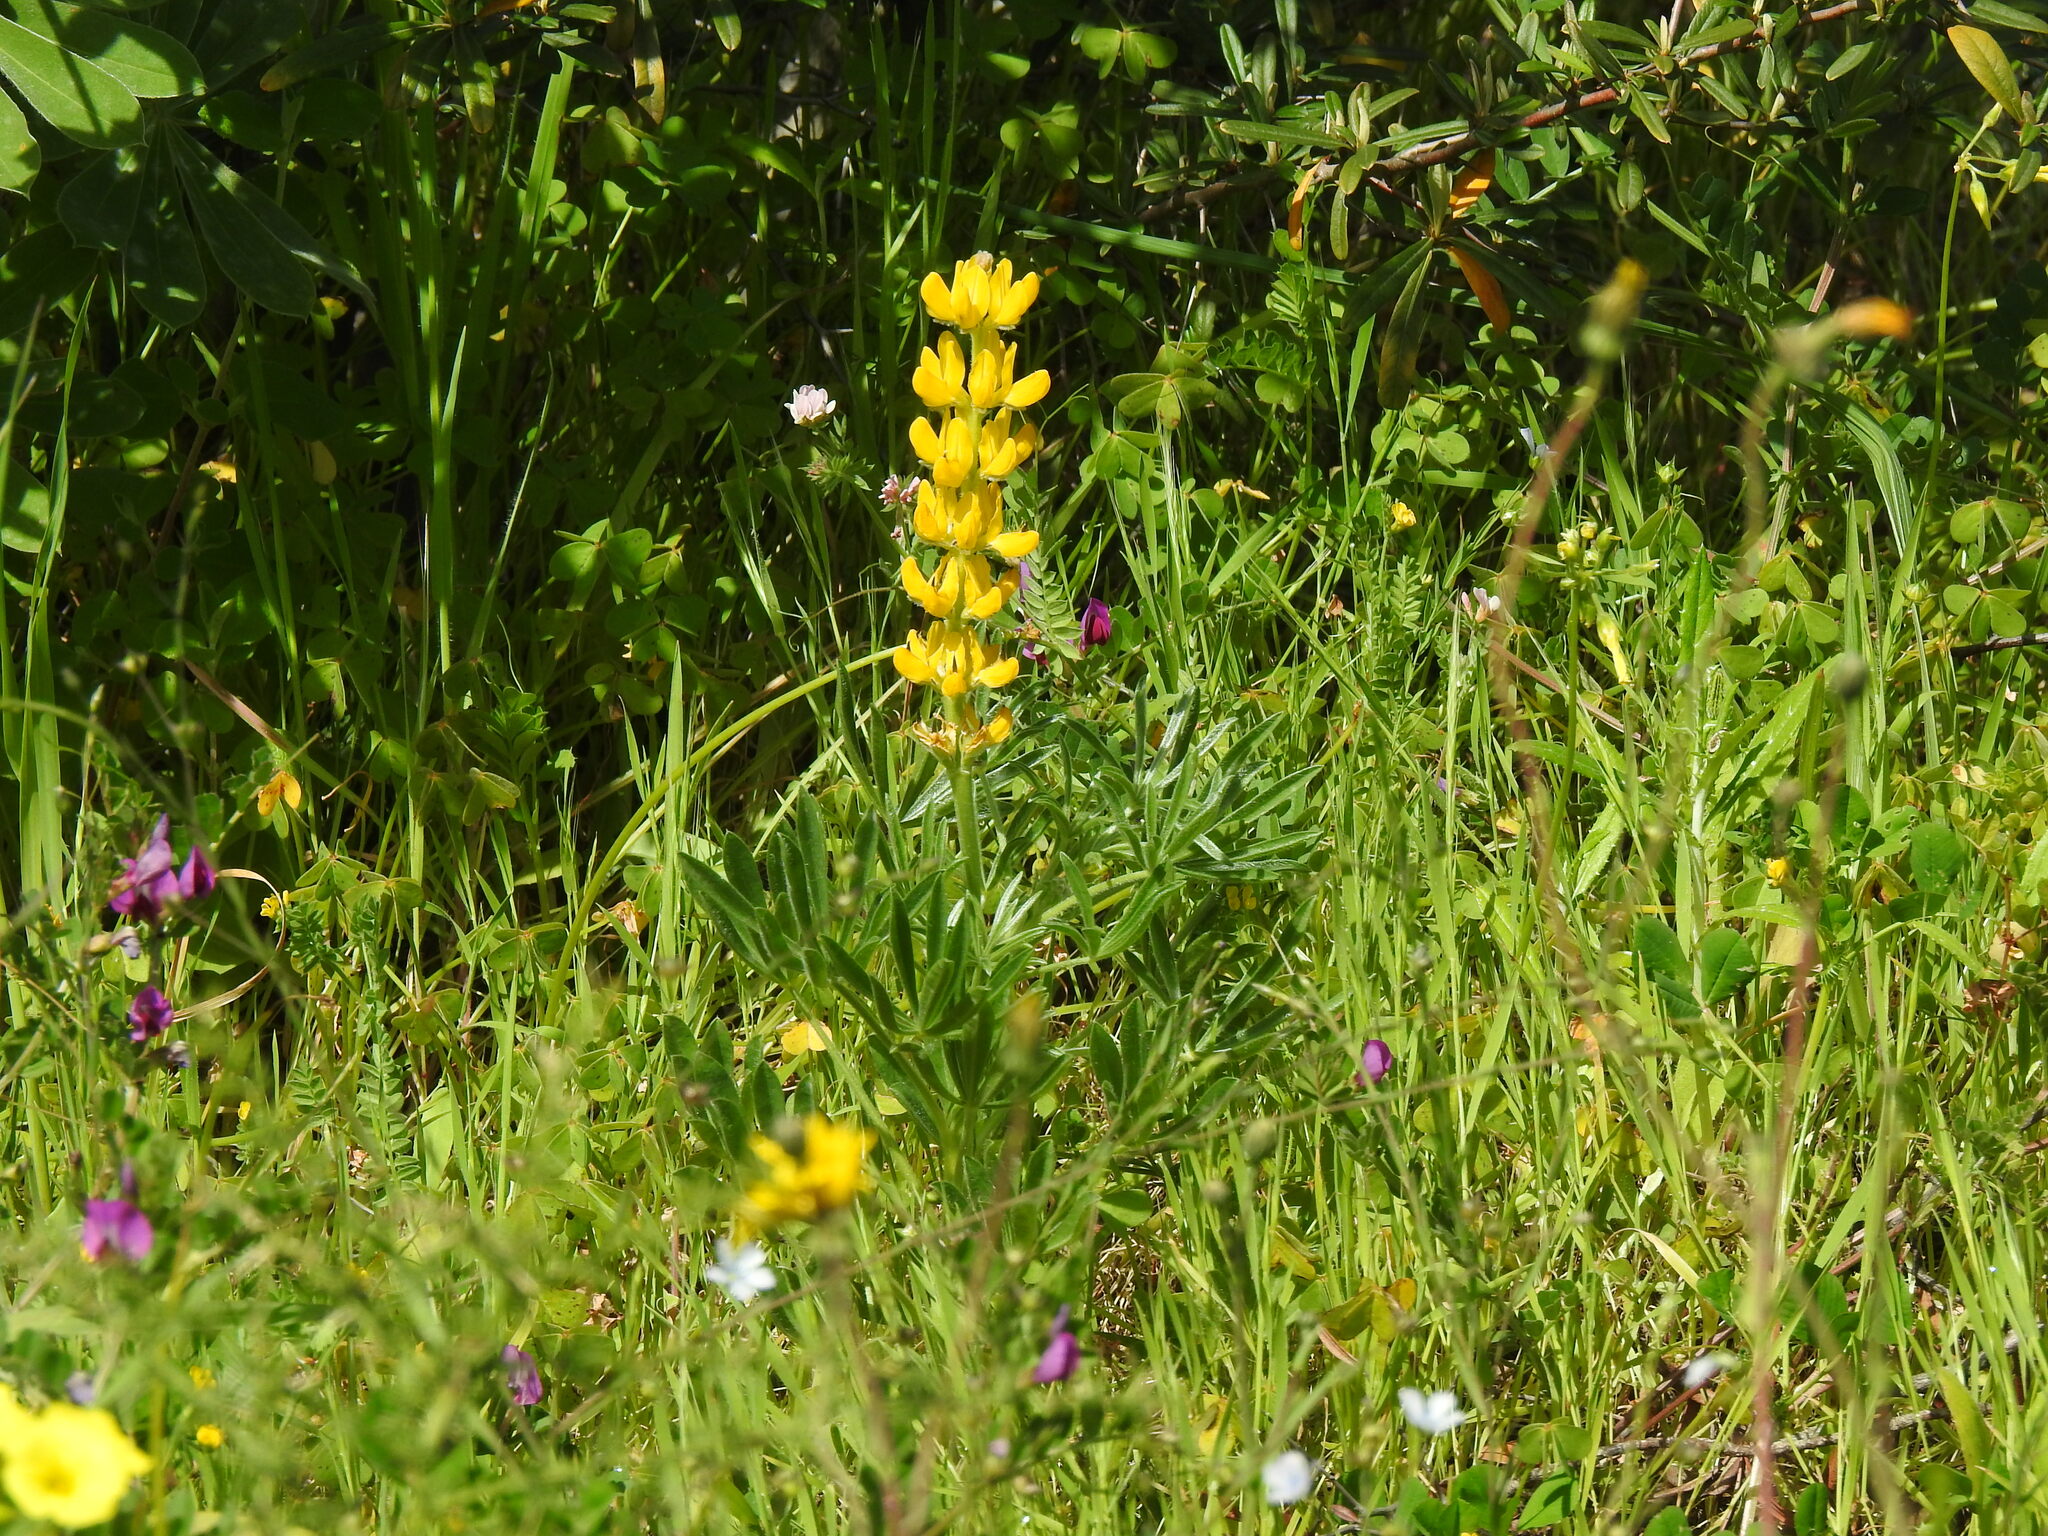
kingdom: Plantae
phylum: Tracheophyta
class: Magnoliopsida
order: Fabales
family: Fabaceae
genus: Lupinus
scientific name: Lupinus luteus
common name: European yellow lupine
